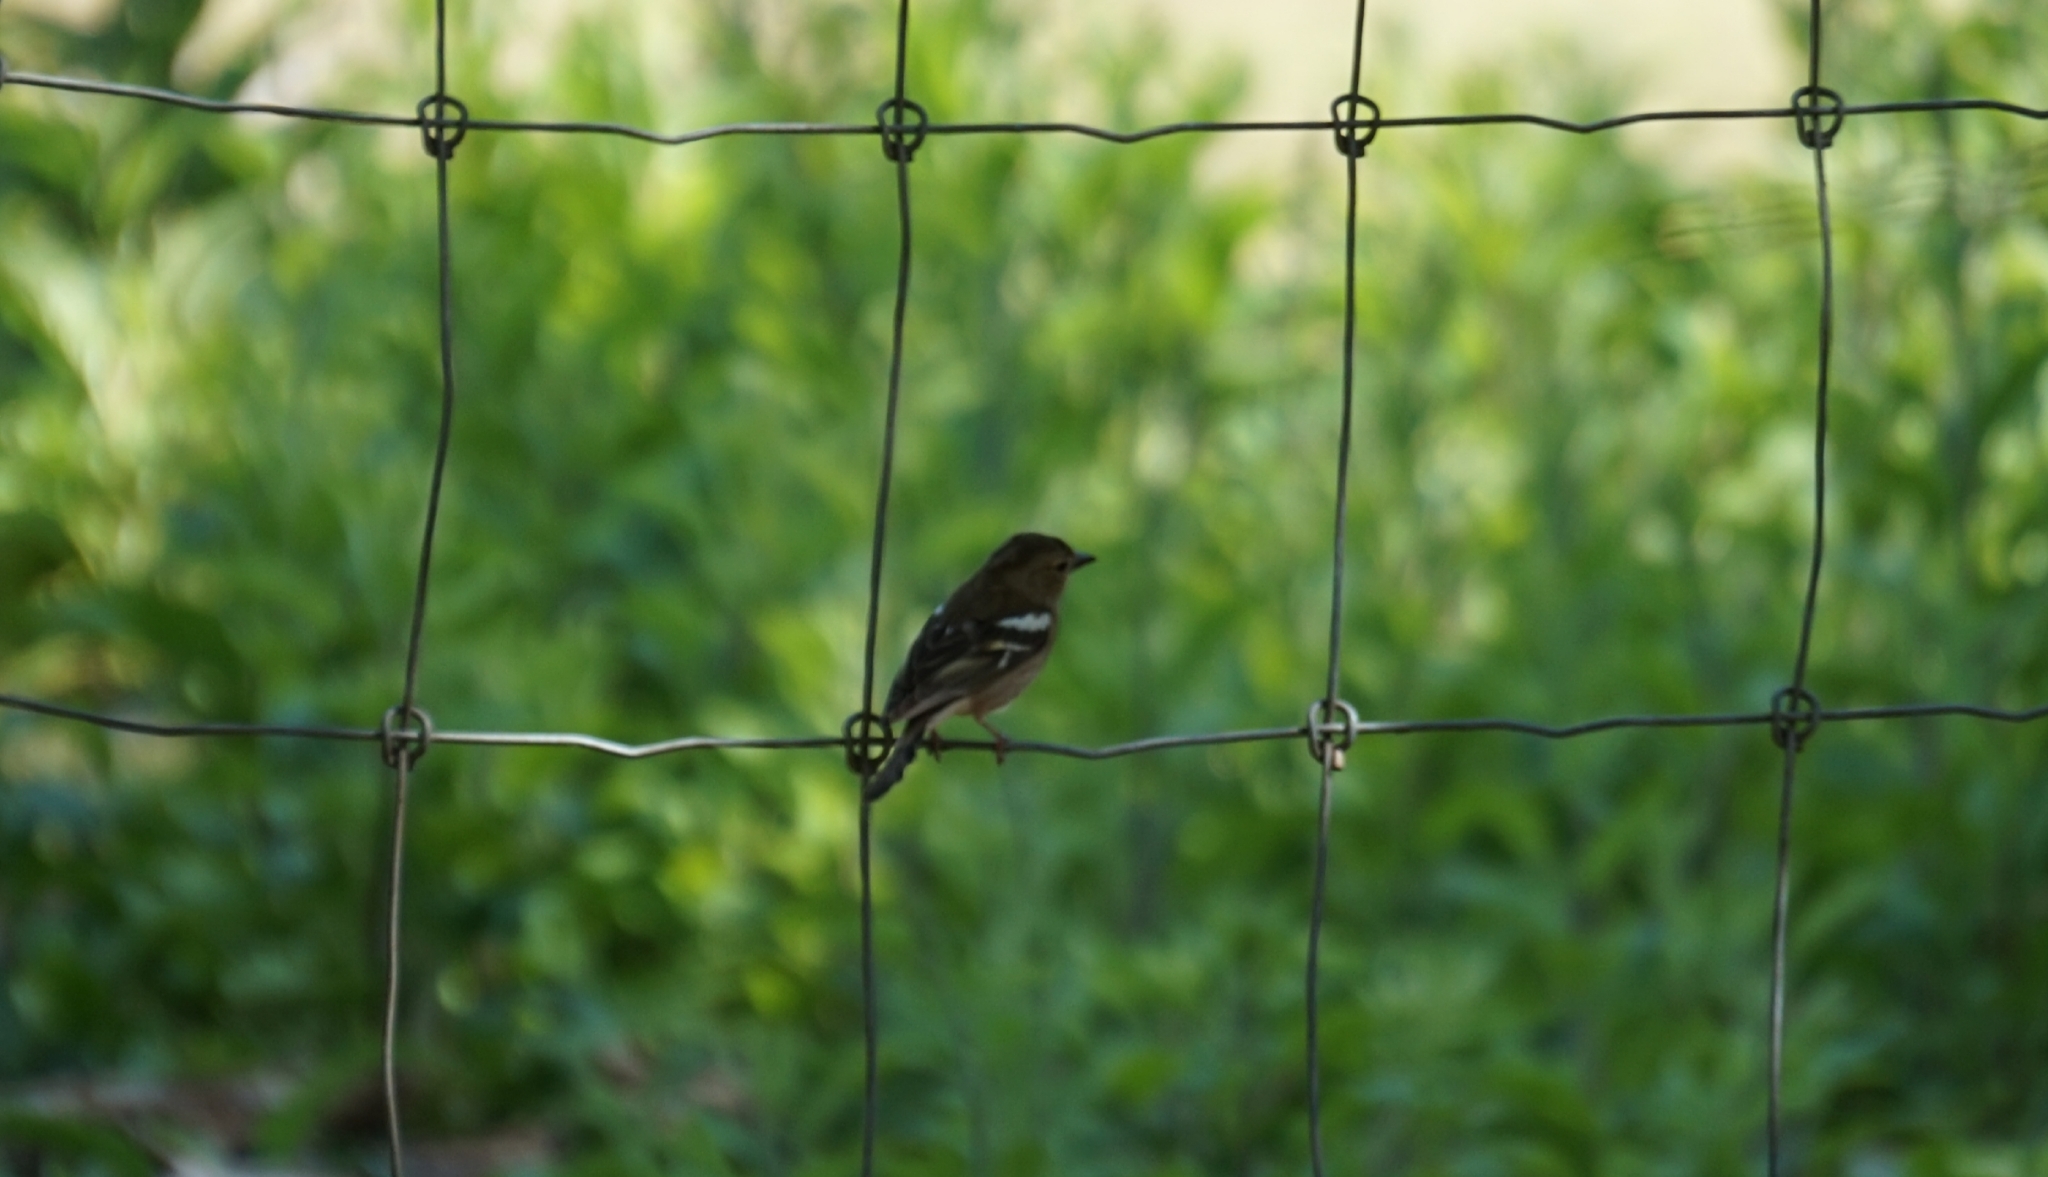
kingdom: Animalia
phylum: Chordata
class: Aves
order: Passeriformes
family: Fringillidae
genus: Fringilla
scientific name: Fringilla coelebs
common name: Common chaffinch
